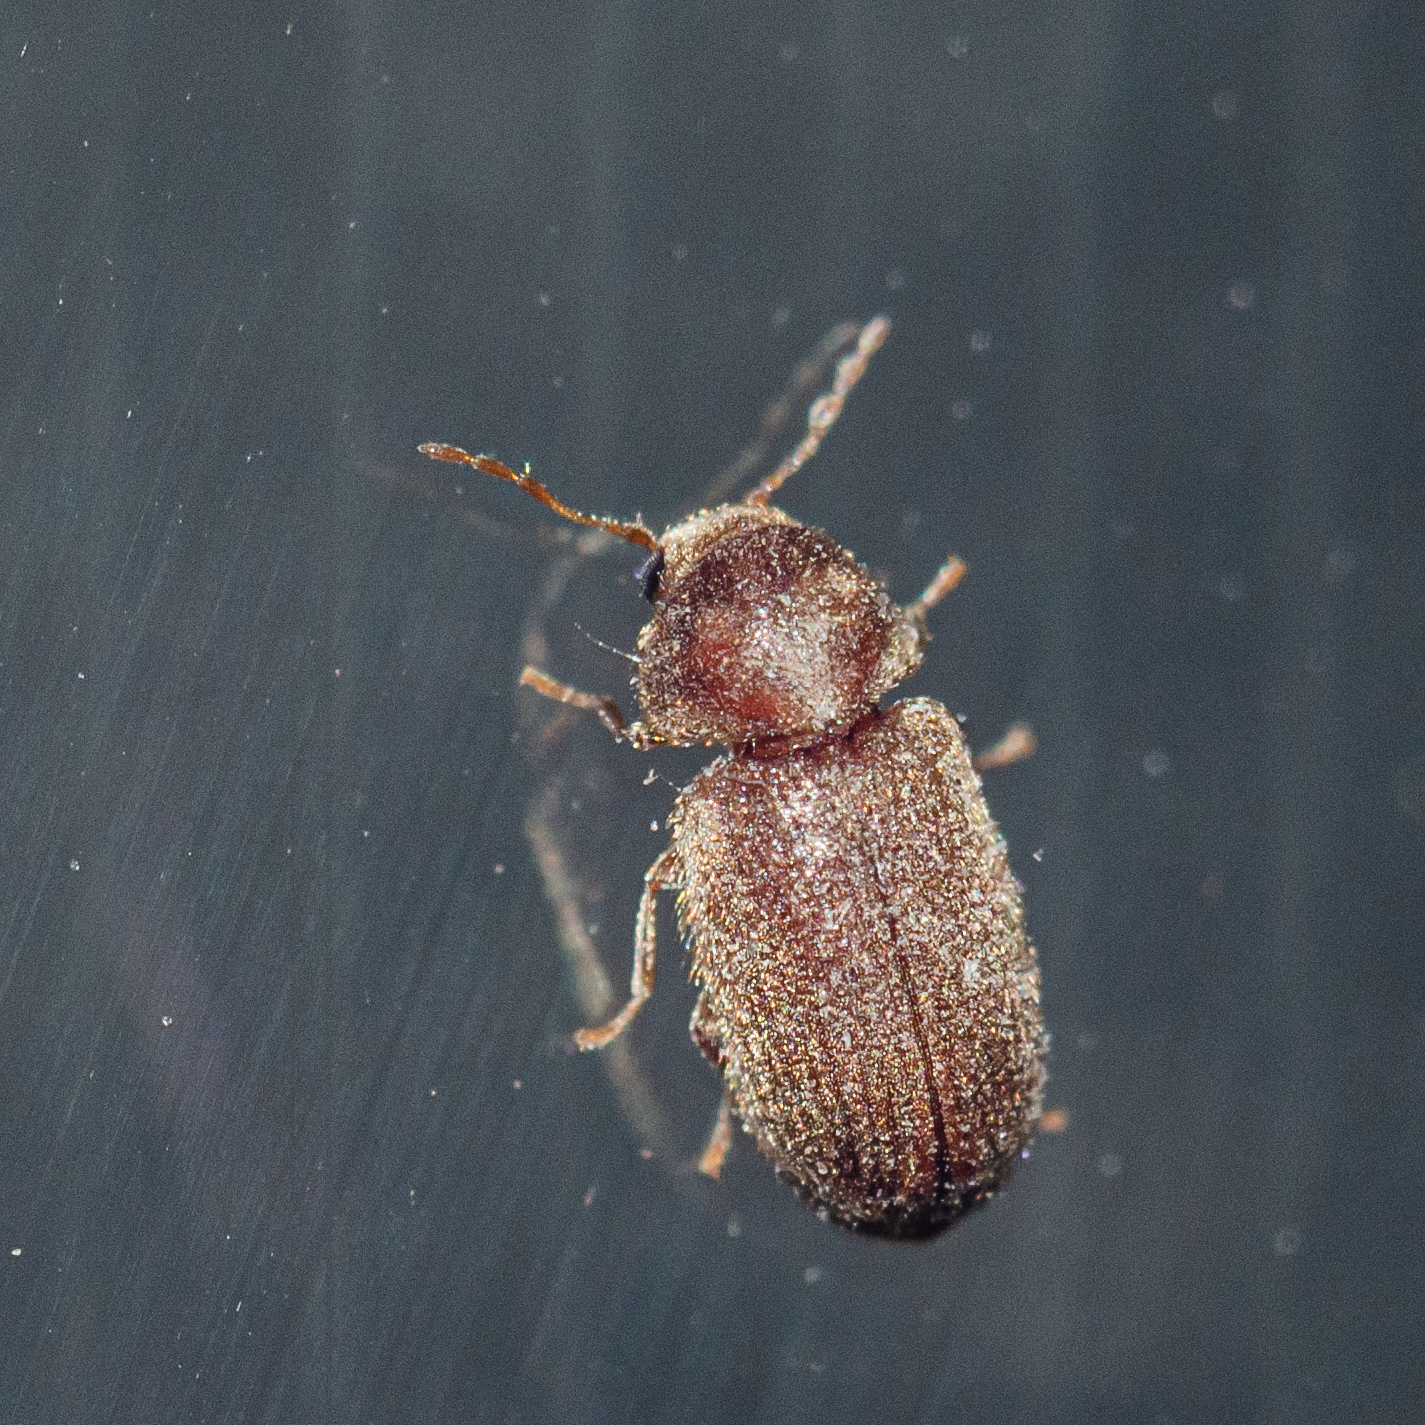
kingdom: Animalia
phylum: Arthropoda
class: Insecta
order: Coleoptera
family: Anobiidae
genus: Stegobium
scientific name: Stegobium paniceum
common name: Drugstore beetle
